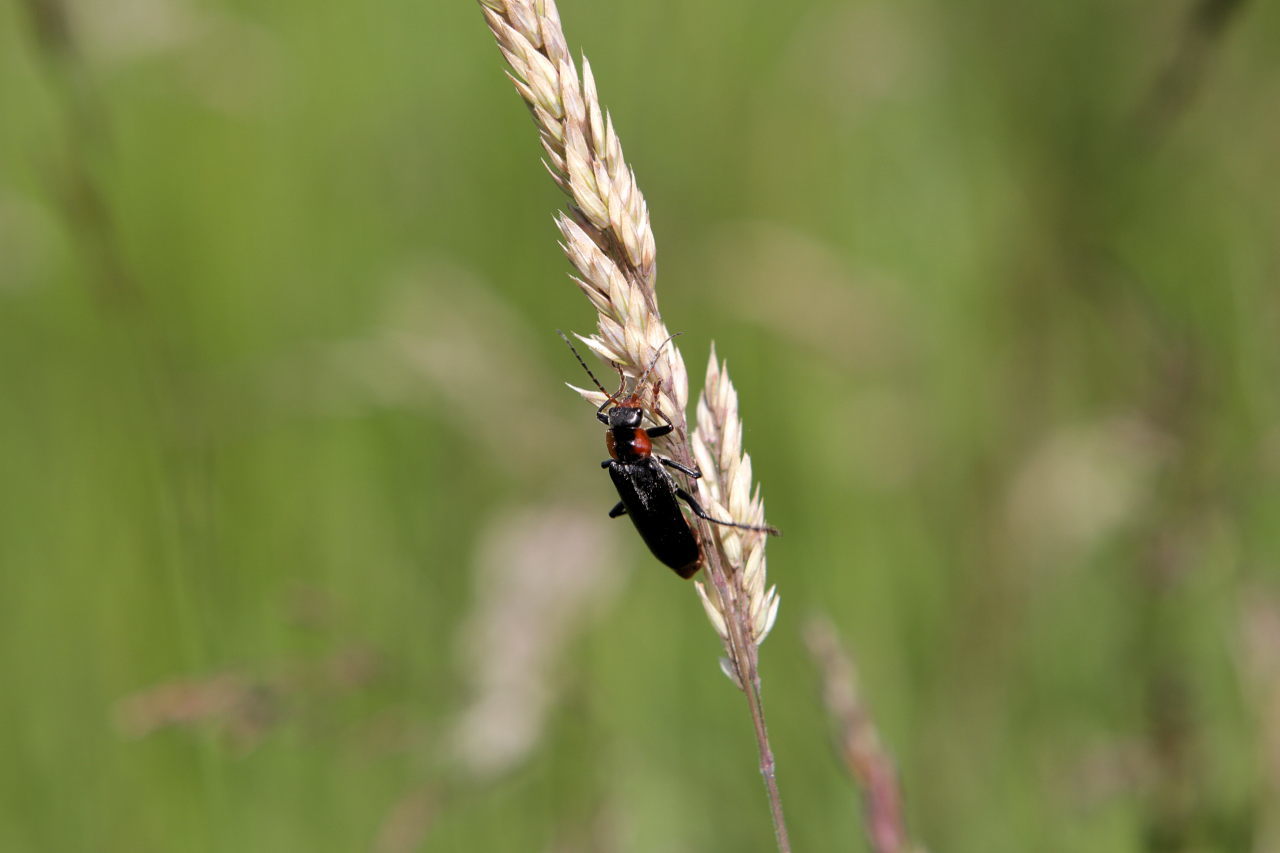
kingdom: Animalia
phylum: Arthropoda
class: Insecta
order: Coleoptera
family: Cantharidae
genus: Cantharis
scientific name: Cantharis fusca
